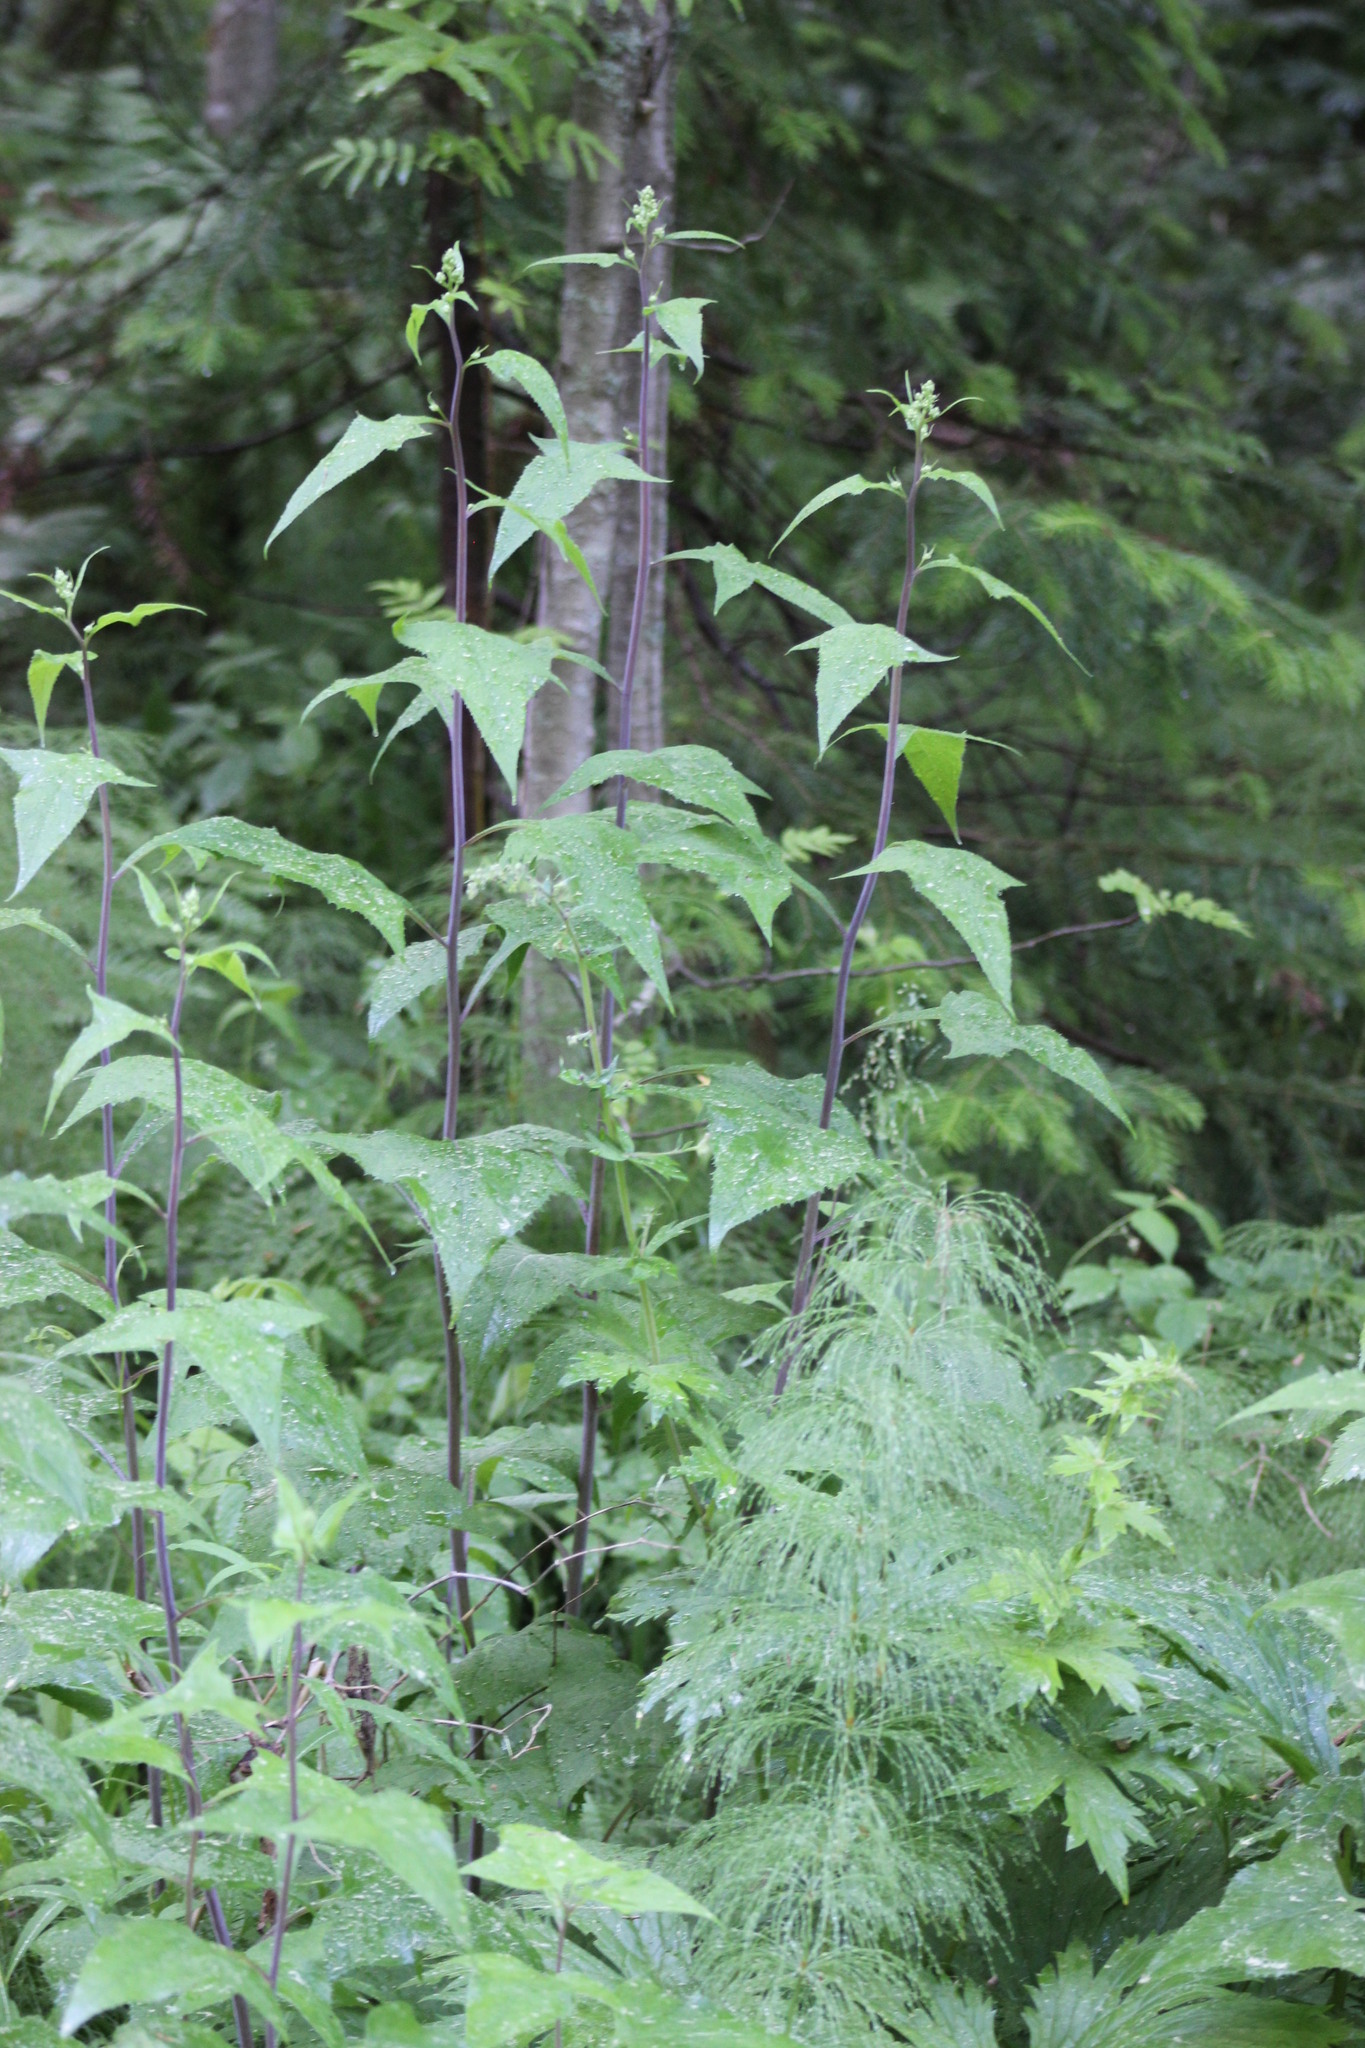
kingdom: Plantae
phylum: Tracheophyta
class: Magnoliopsida
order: Asterales
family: Asteraceae
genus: Parasenecio
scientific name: Parasenecio hastatus
